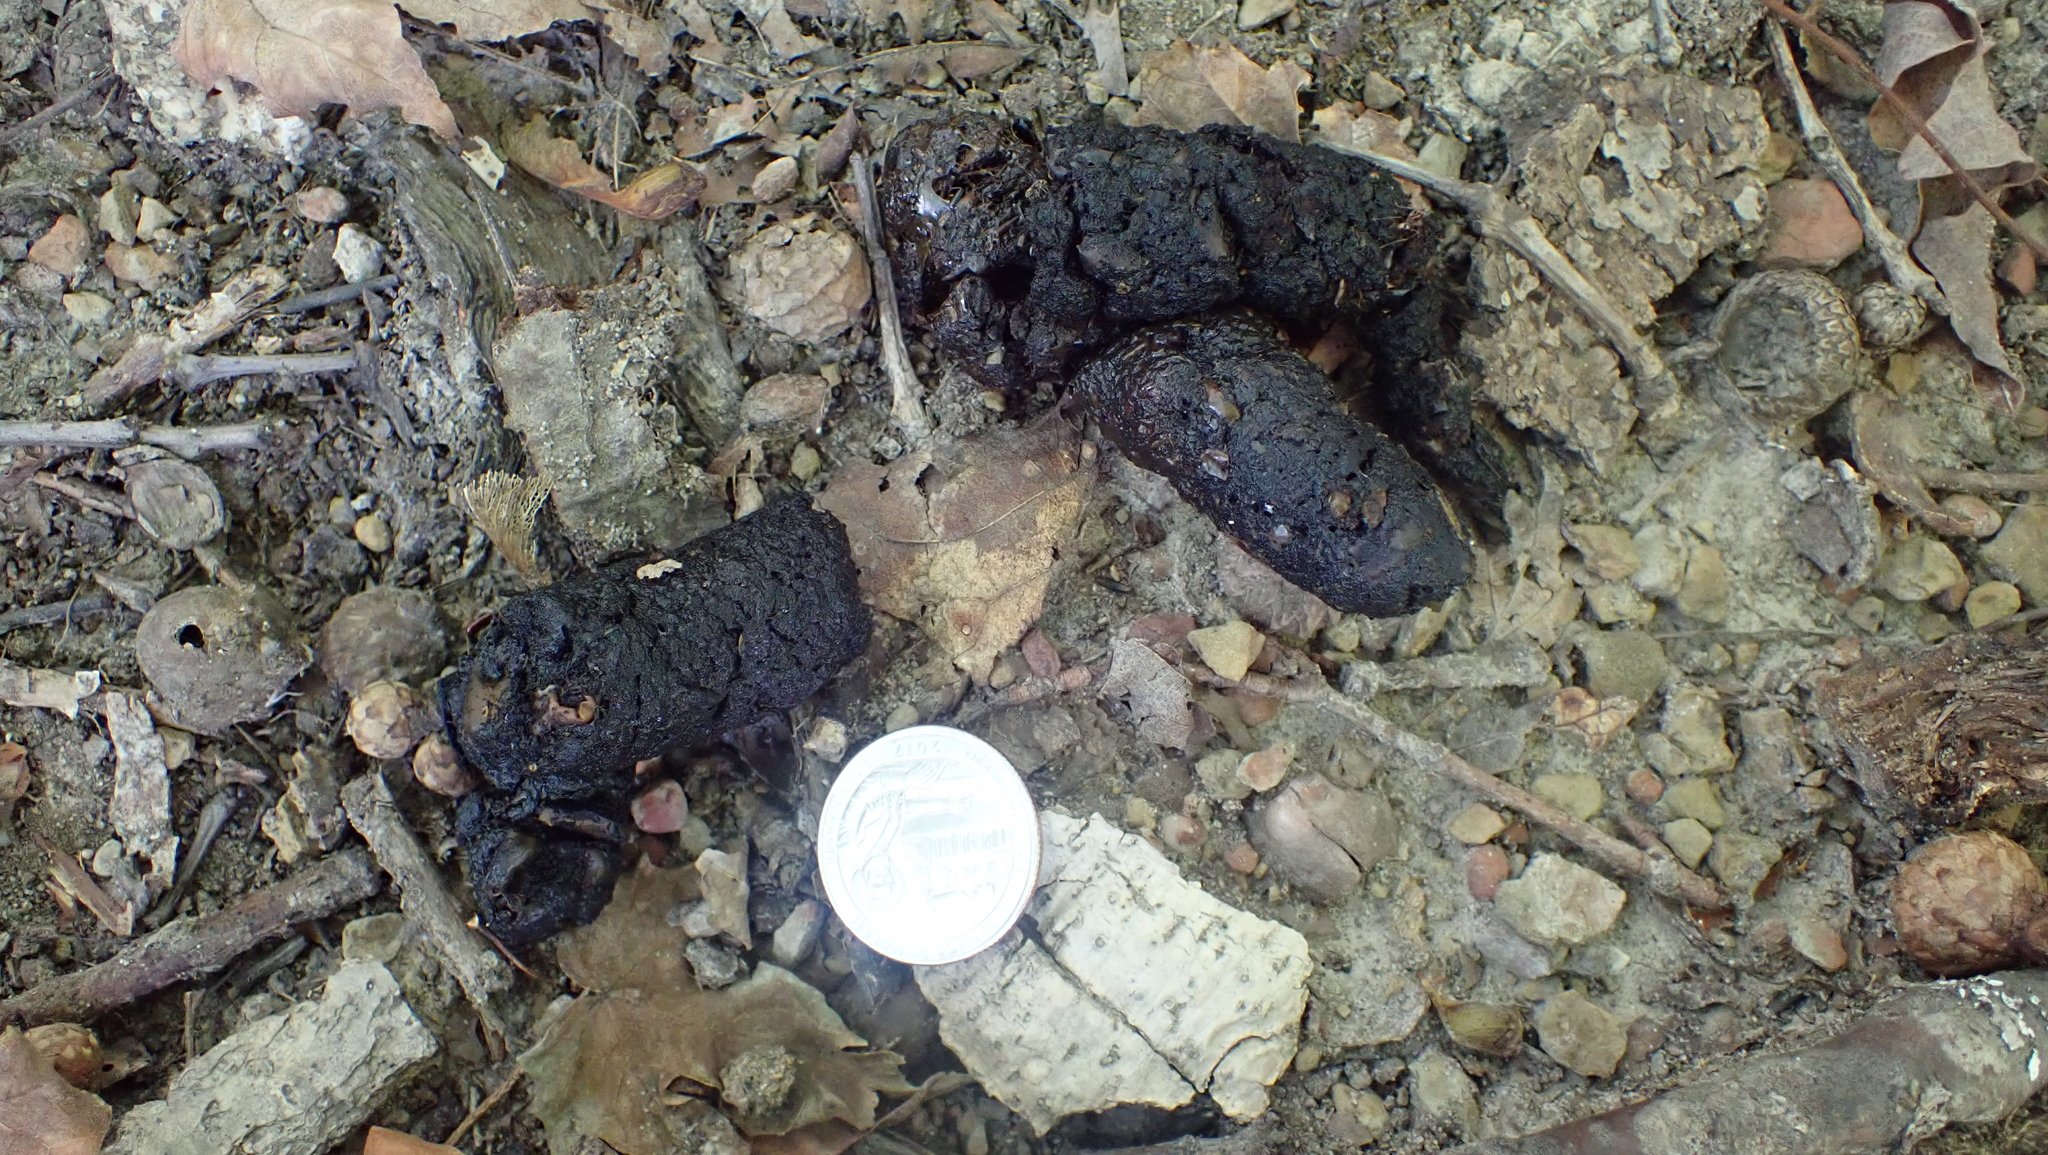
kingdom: Animalia
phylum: Chordata
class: Mammalia
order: Carnivora
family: Procyonidae
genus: Procyon
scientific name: Procyon lotor
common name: Raccoon
